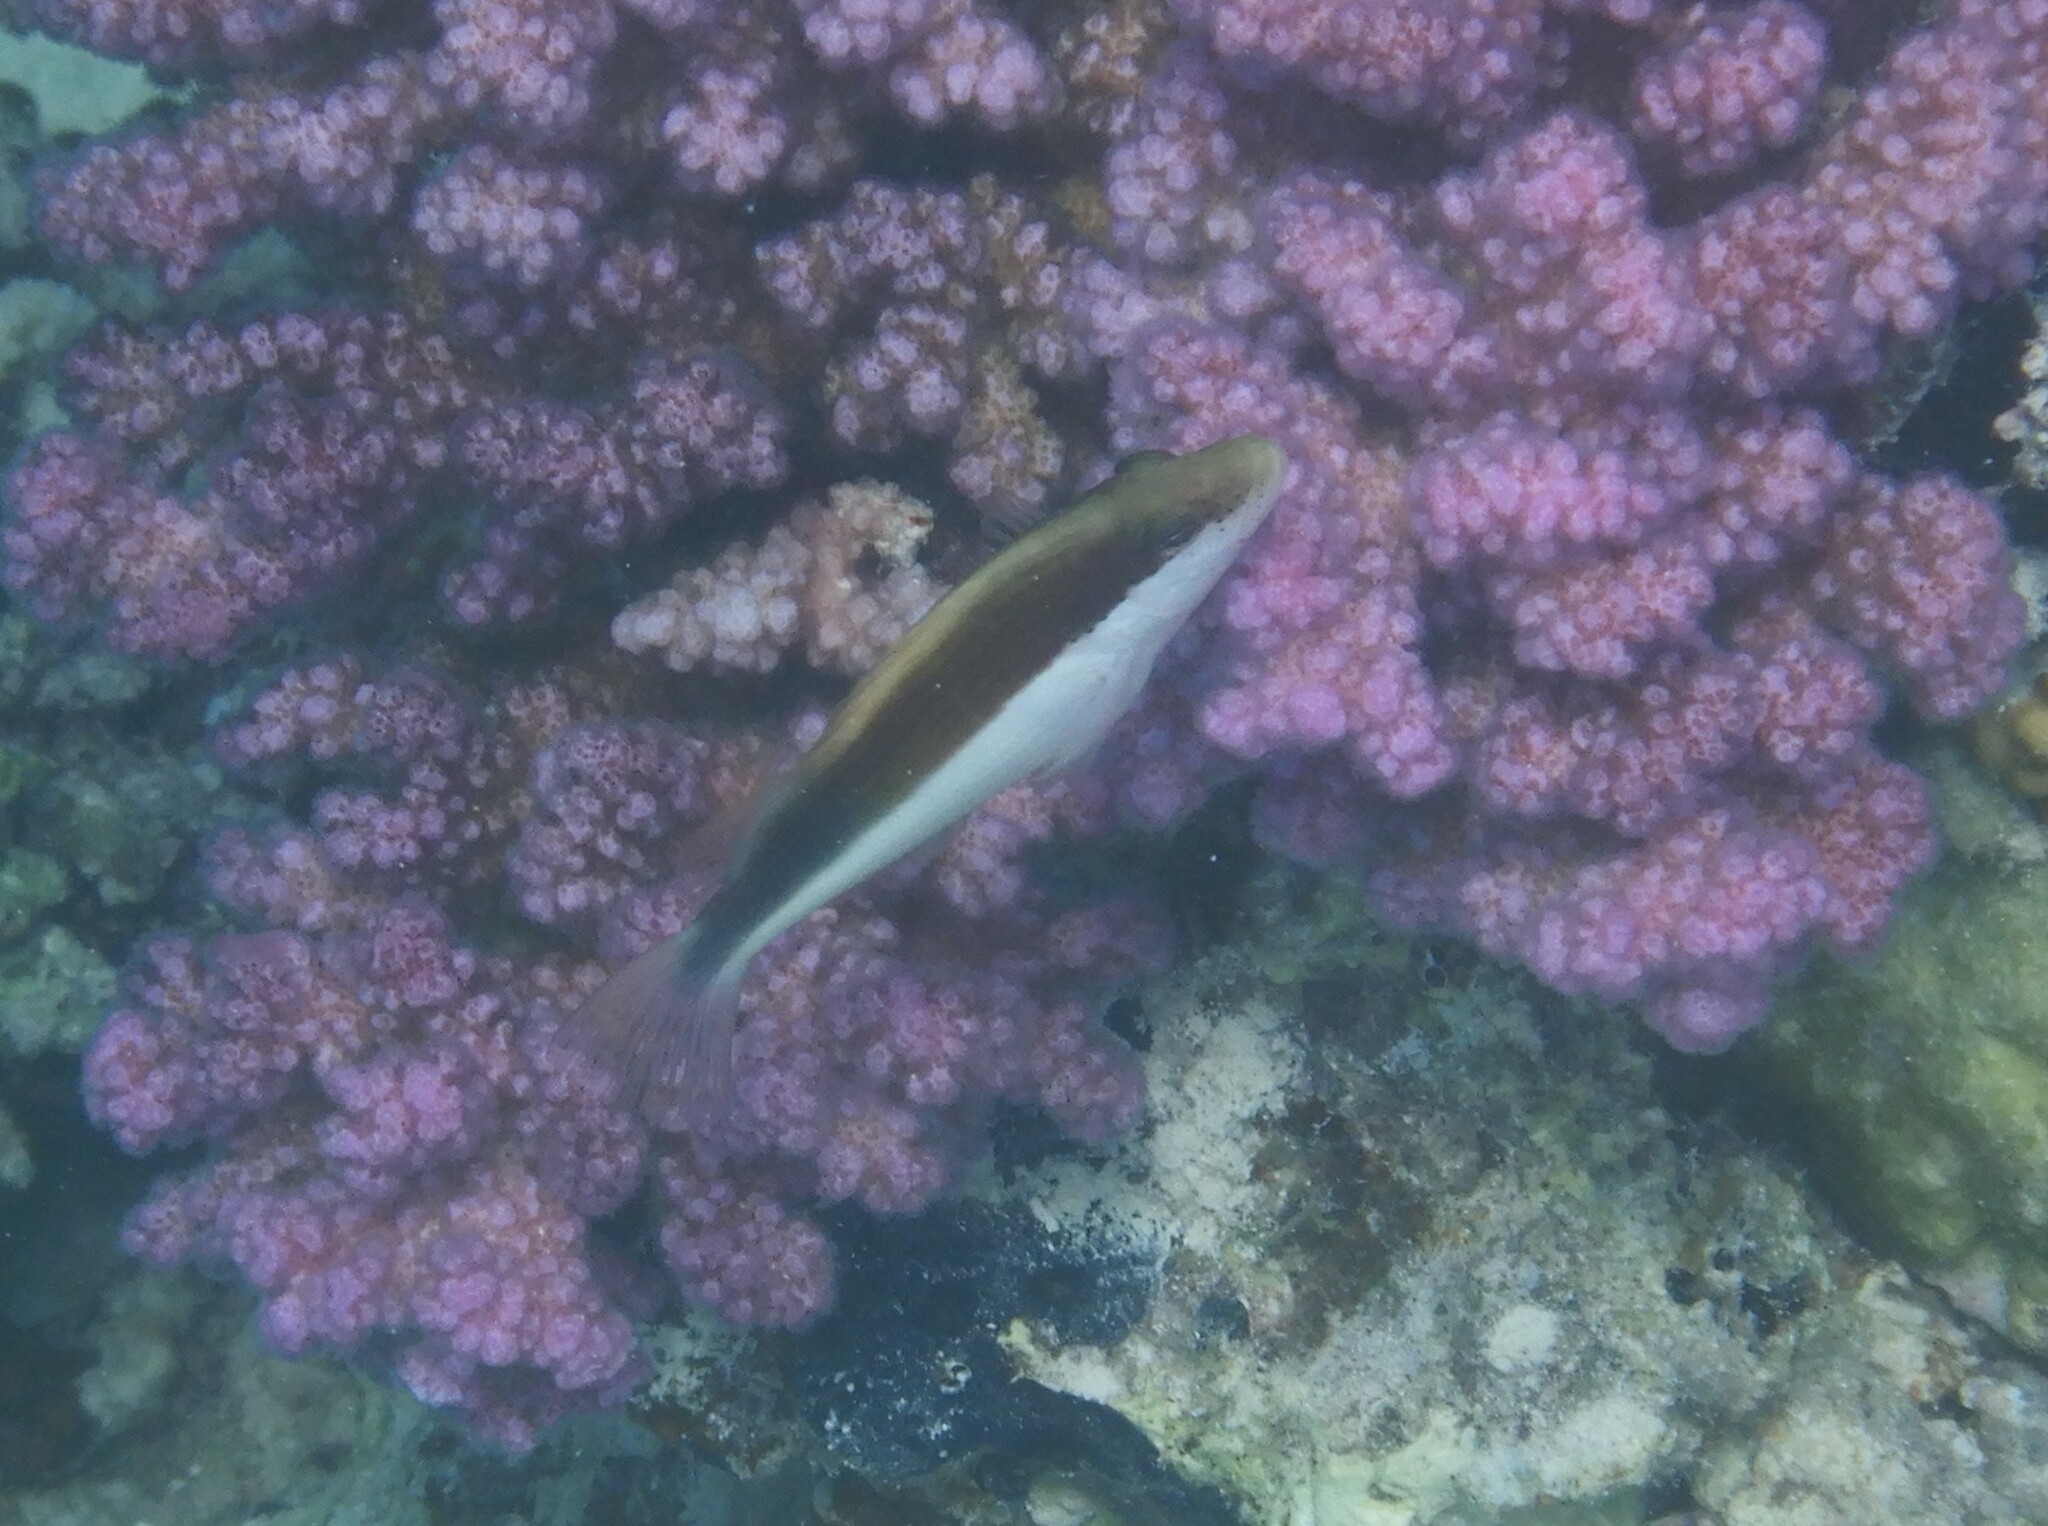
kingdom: Animalia
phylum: Chordata
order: Perciformes
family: Cirrhitidae
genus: Paracirrhites
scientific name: Paracirrhites forsteri
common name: Freckled hawkfish
